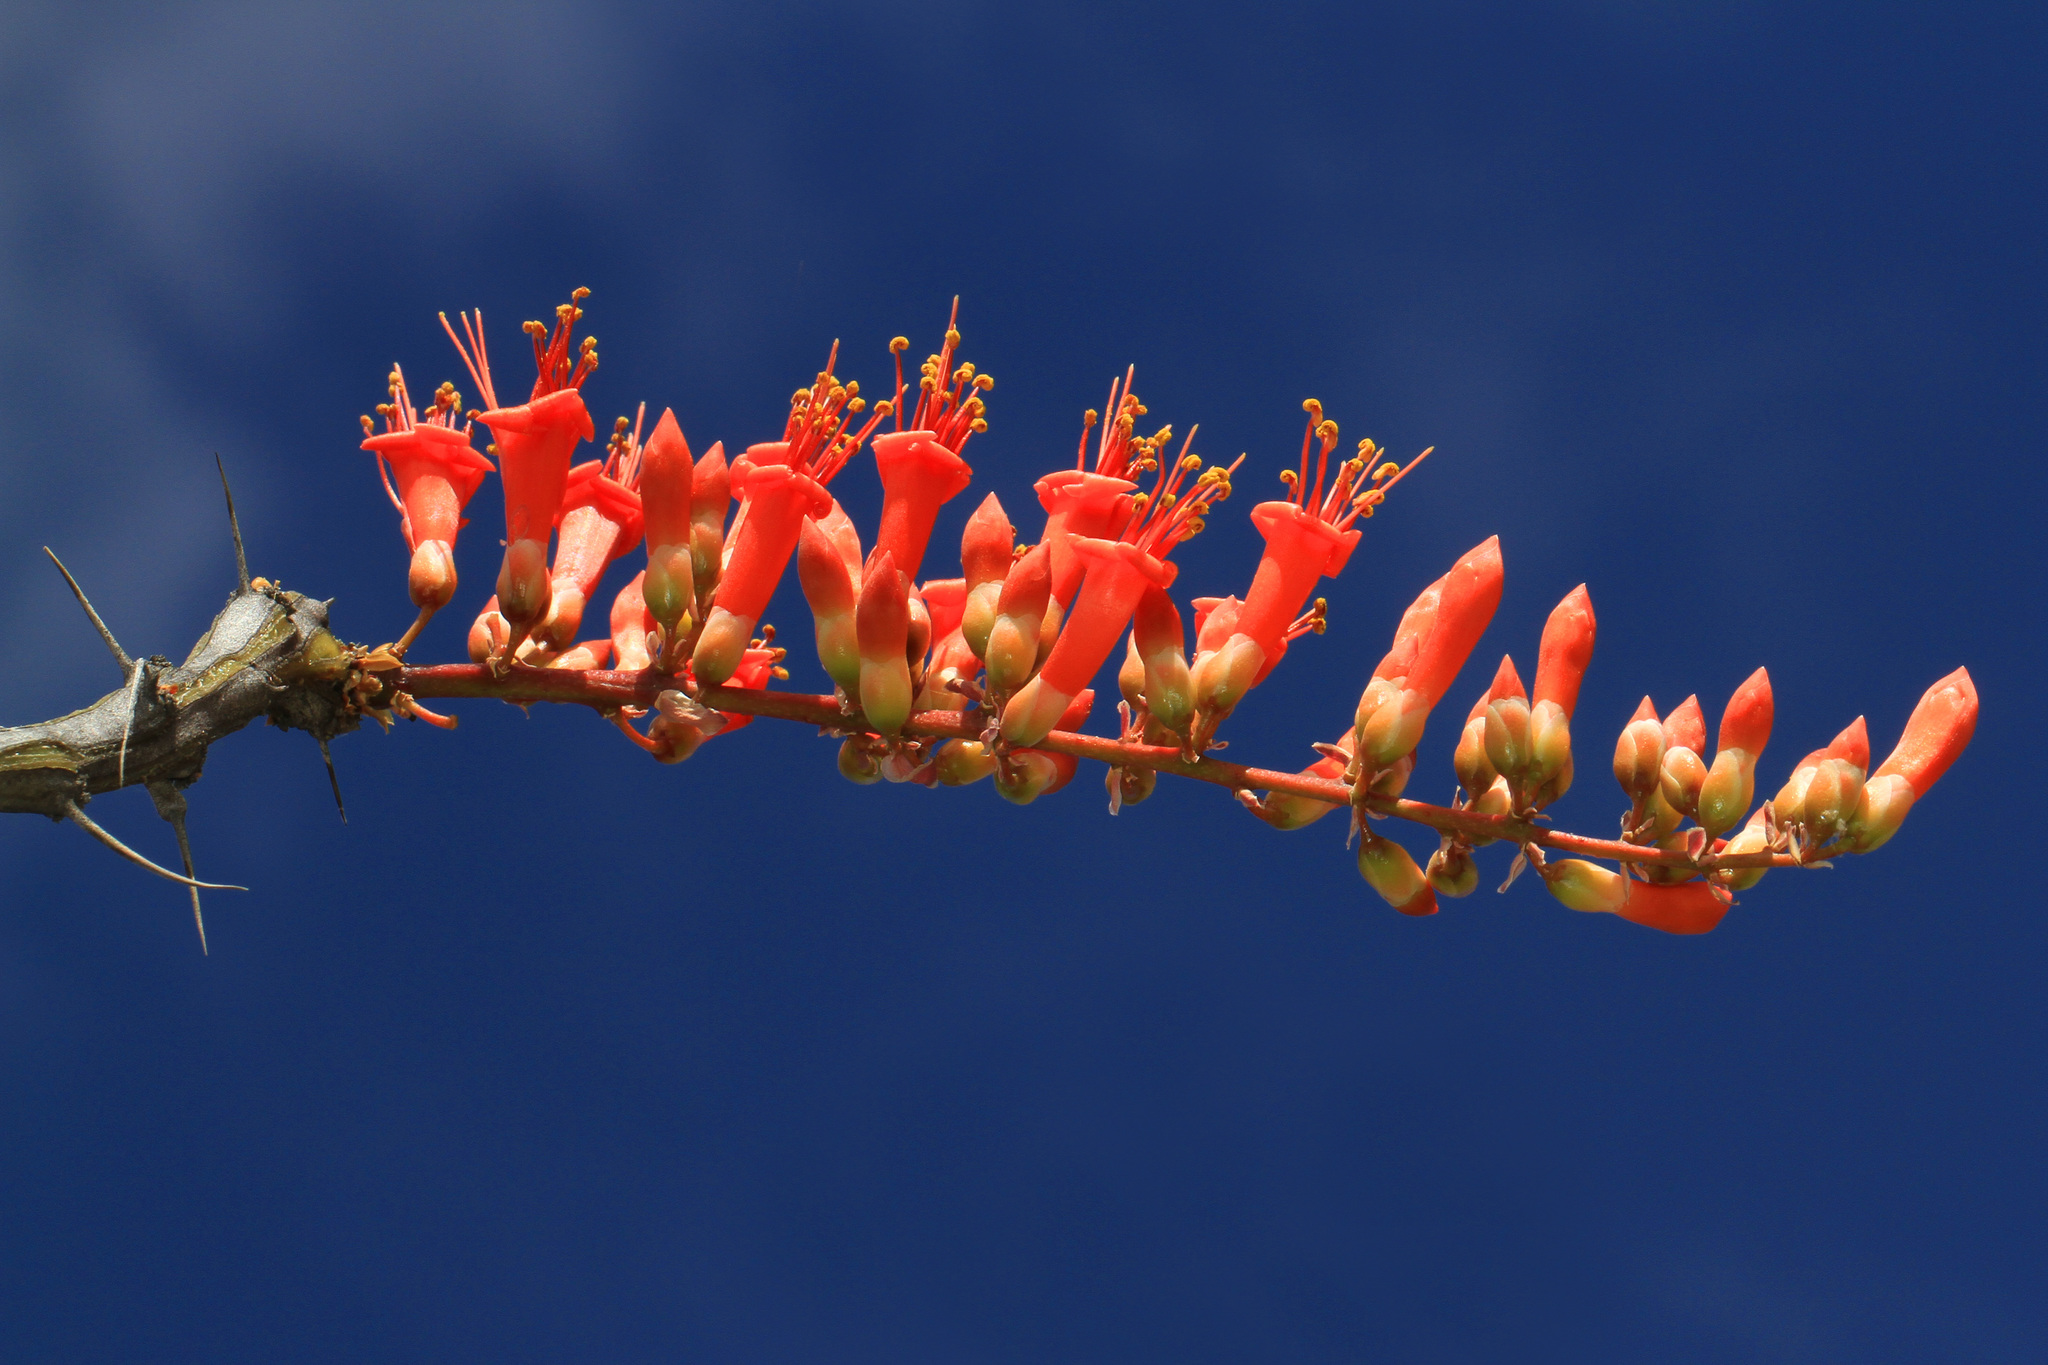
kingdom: Plantae
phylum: Tracheophyta
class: Magnoliopsida
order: Ericales
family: Fouquieriaceae
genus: Fouquieria
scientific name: Fouquieria splendens
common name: Vine-cactus
